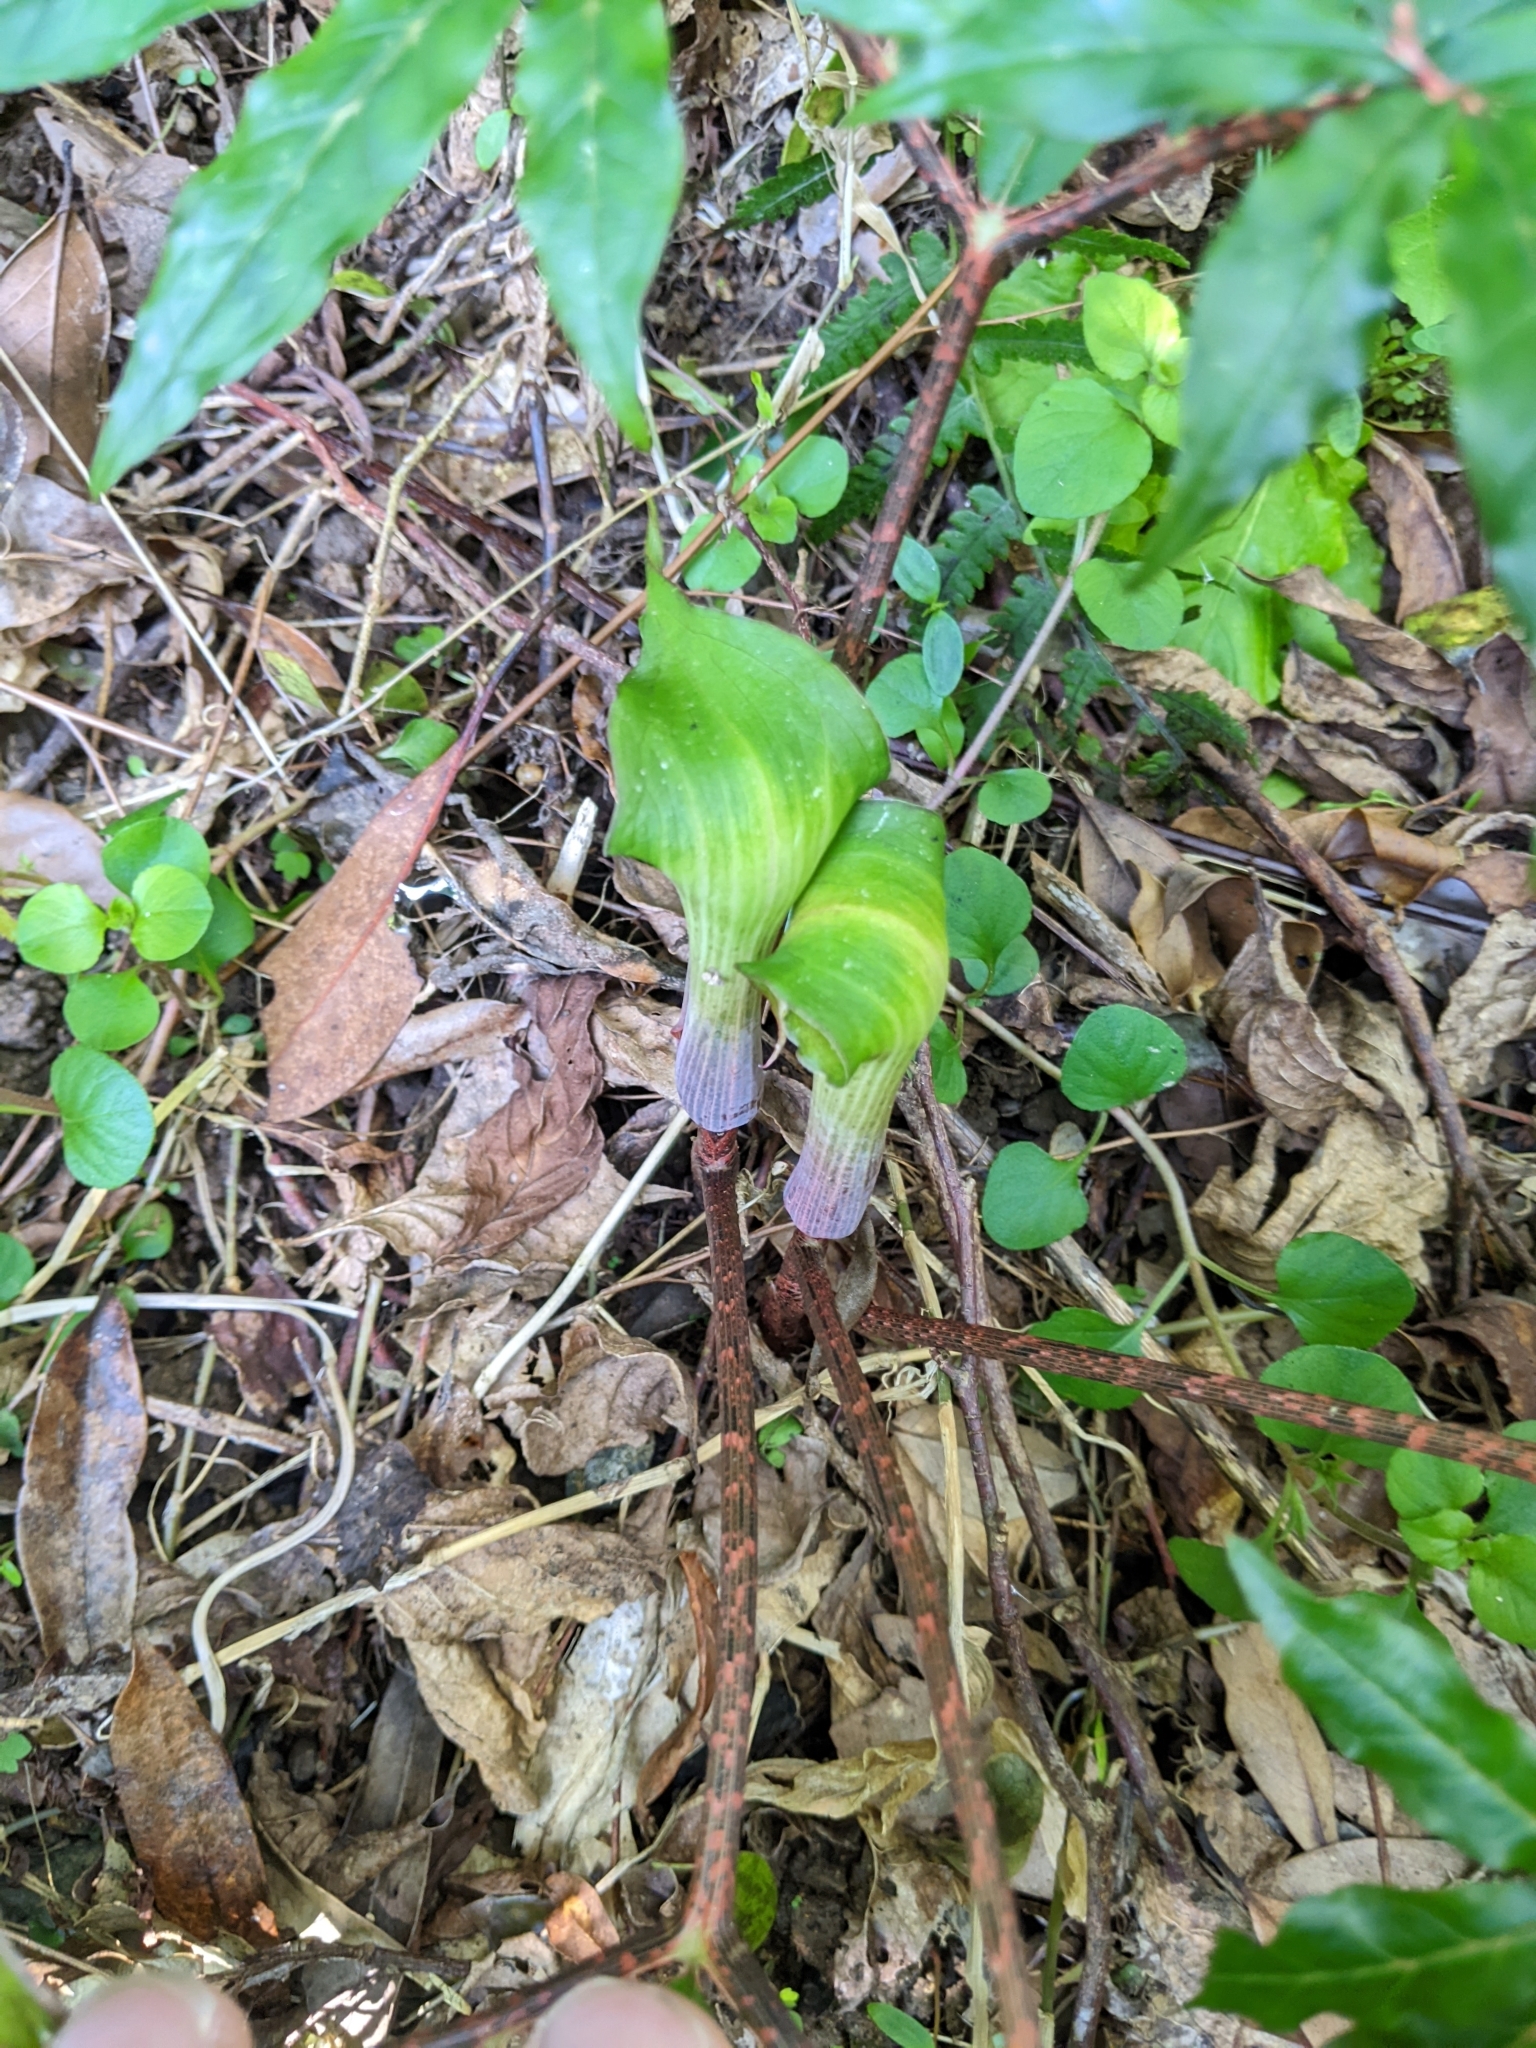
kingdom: Plantae
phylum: Tracheophyta
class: Liliopsida
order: Alismatales
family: Araceae
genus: Arisaema
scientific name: Arisaema heterocephalum
